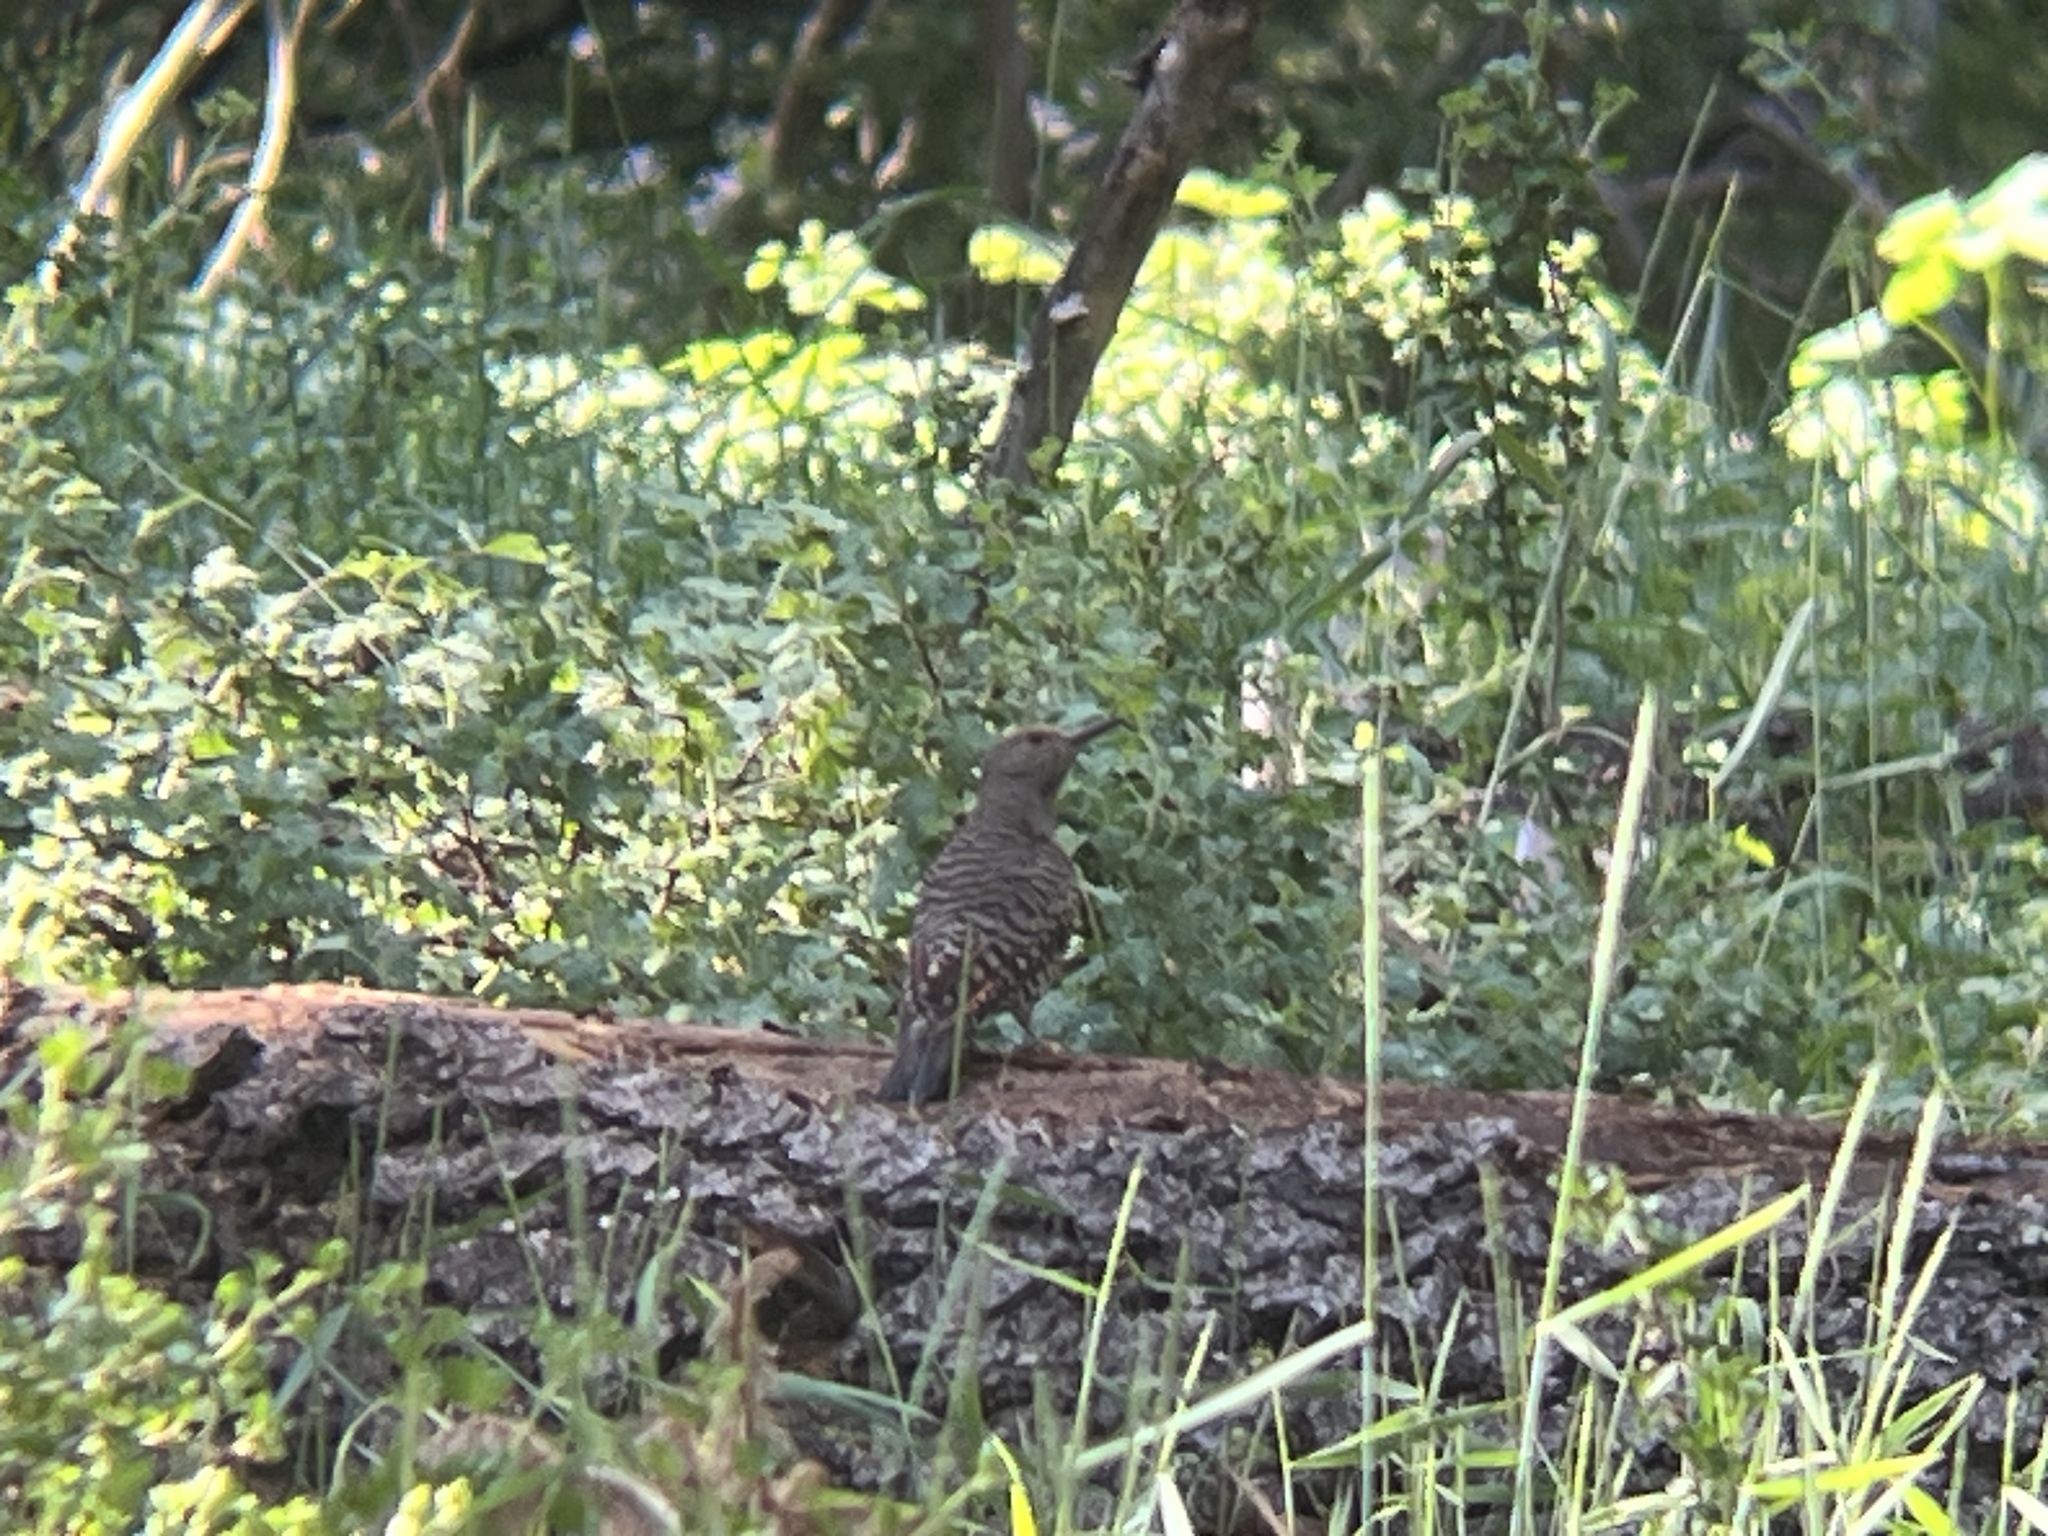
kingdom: Animalia
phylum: Chordata
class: Aves
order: Piciformes
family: Picidae
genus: Colaptes
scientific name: Colaptes auratus
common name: Northern flicker
